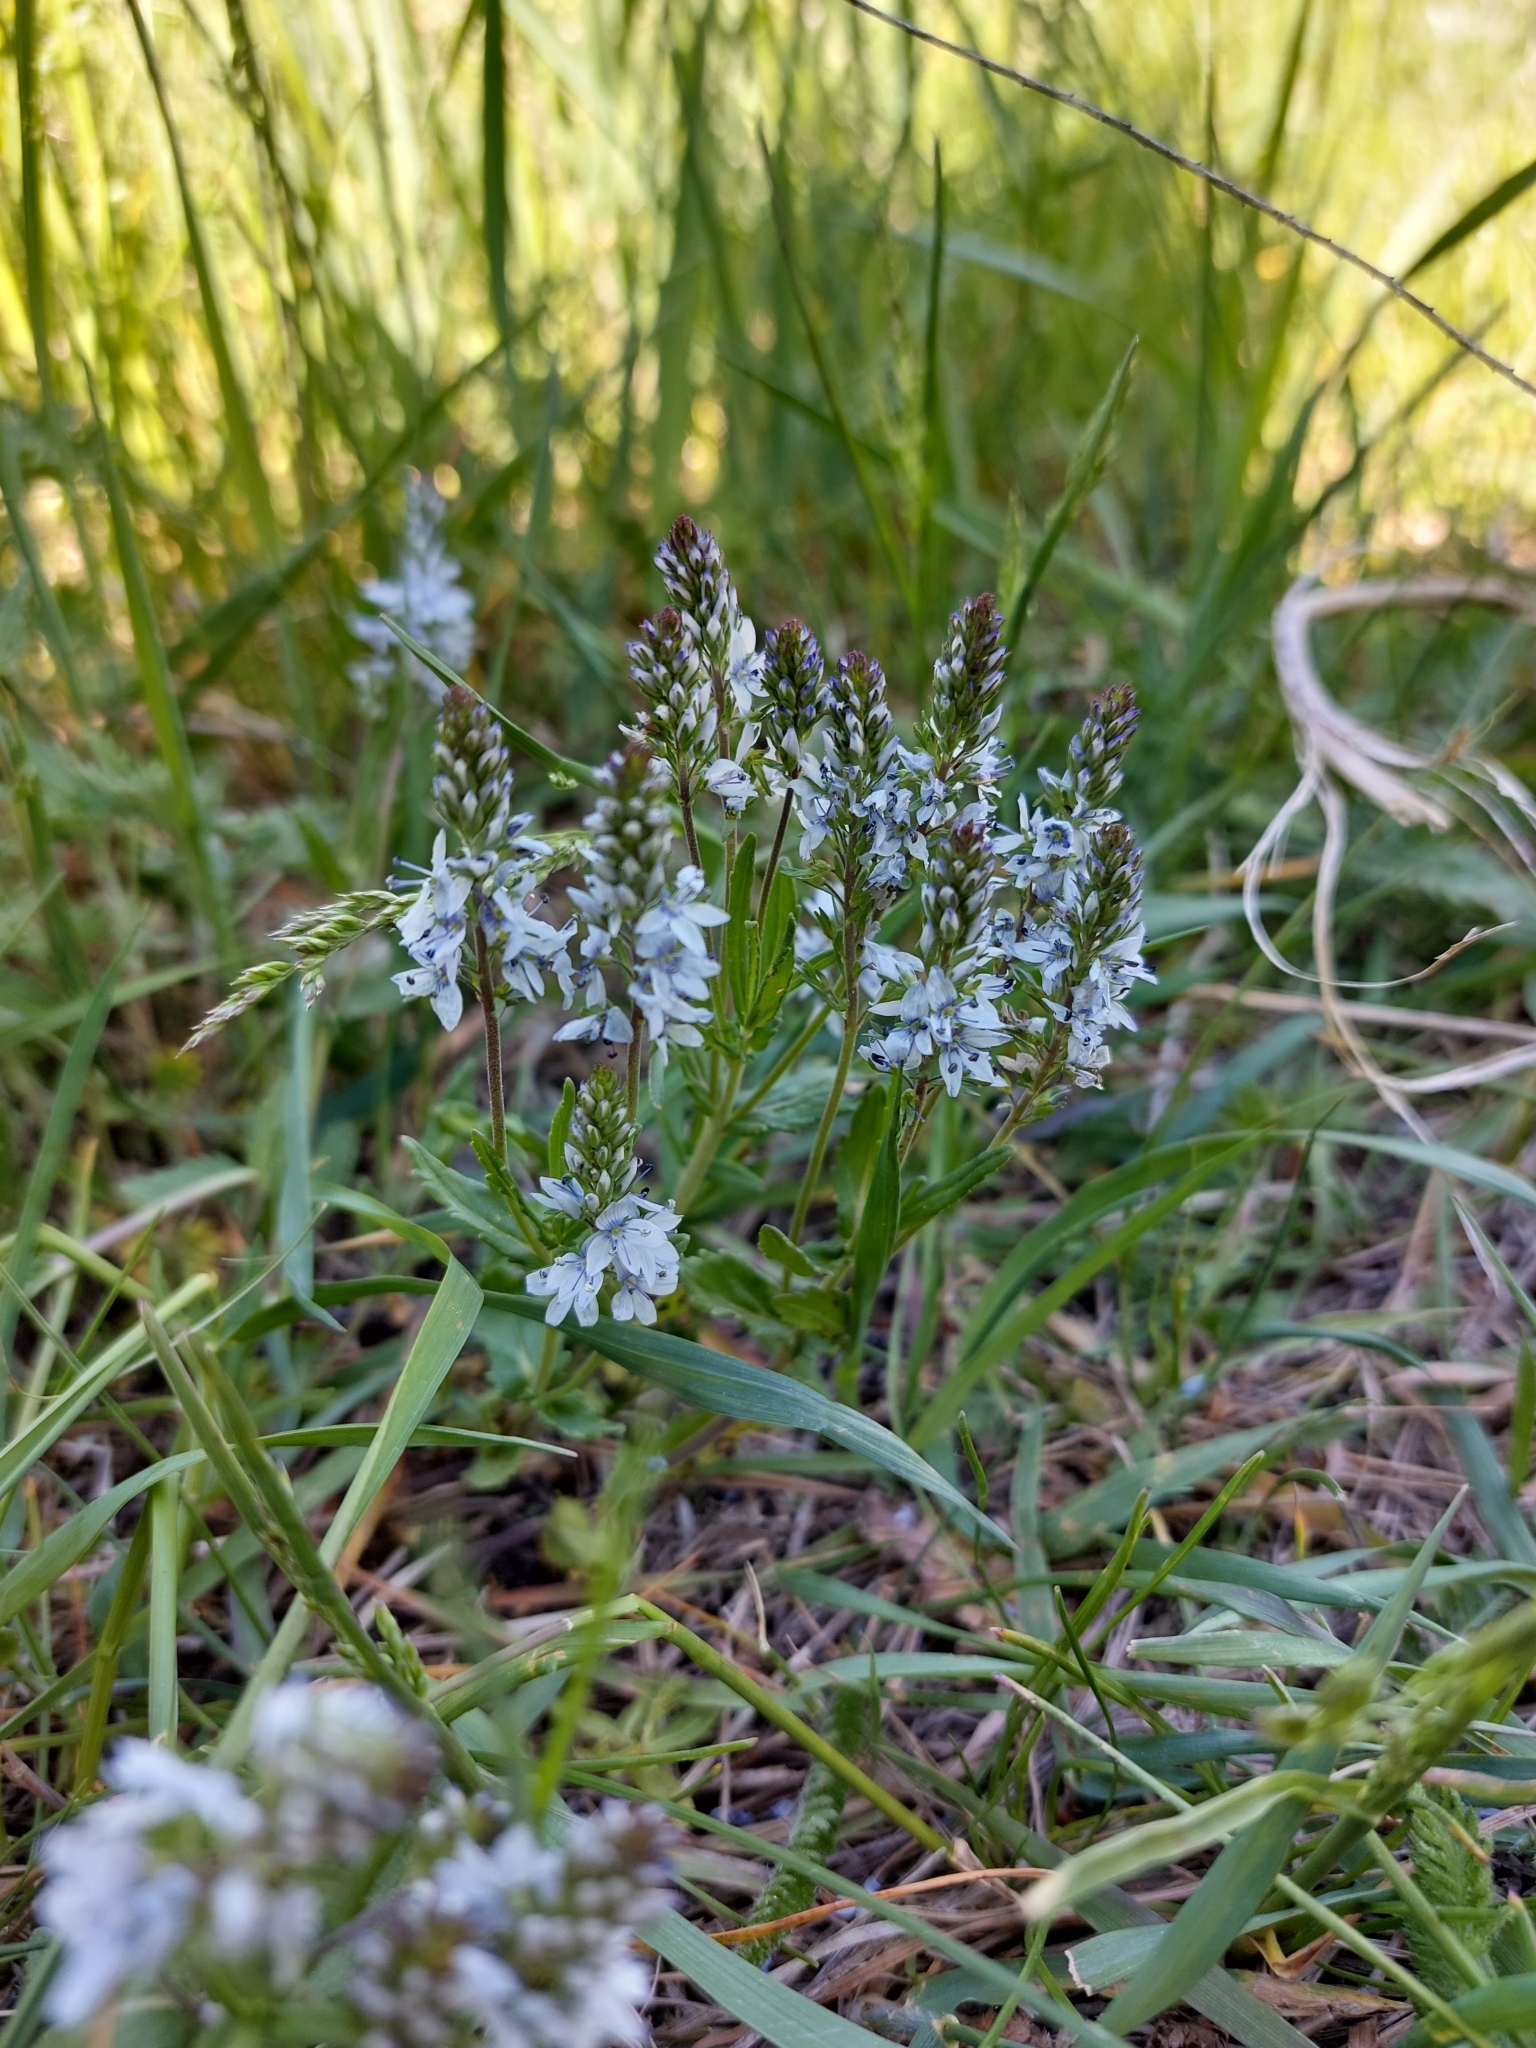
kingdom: Plantae
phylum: Tracheophyta
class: Magnoliopsida
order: Lamiales
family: Plantaginaceae
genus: Veronica
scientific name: Veronica prostrata
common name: Prostrate speedwell
